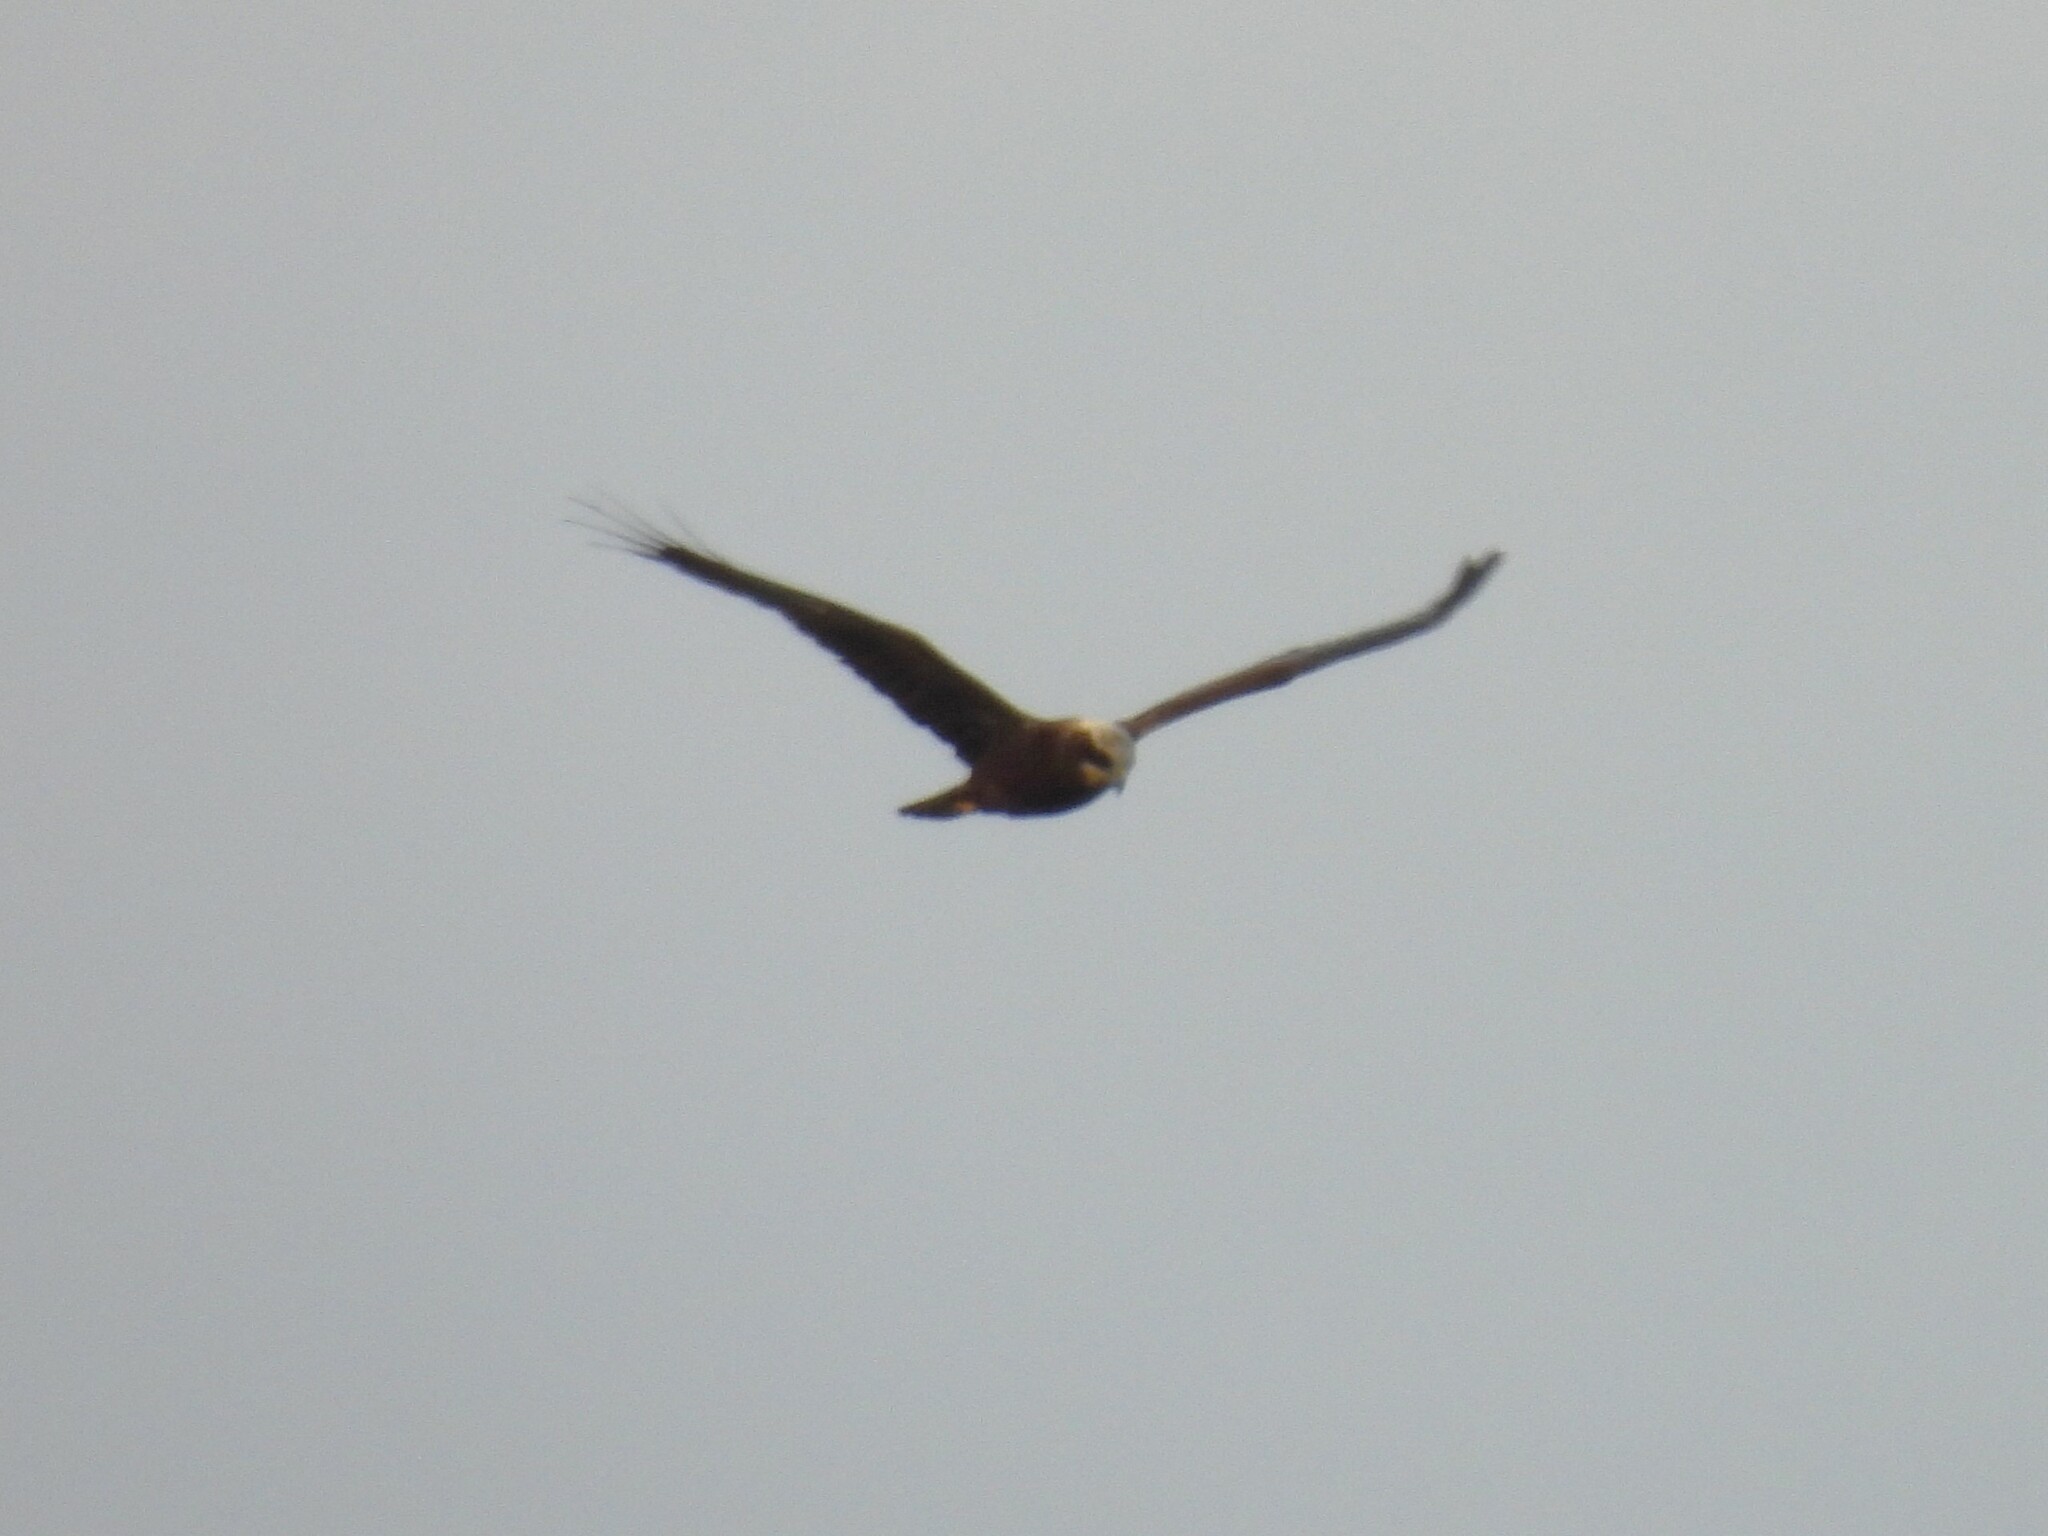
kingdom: Animalia
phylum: Chordata
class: Aves
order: Accipitriformes
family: Accipitridae
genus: Circus
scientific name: Circus aeruginosus
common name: Western marsh harrier
